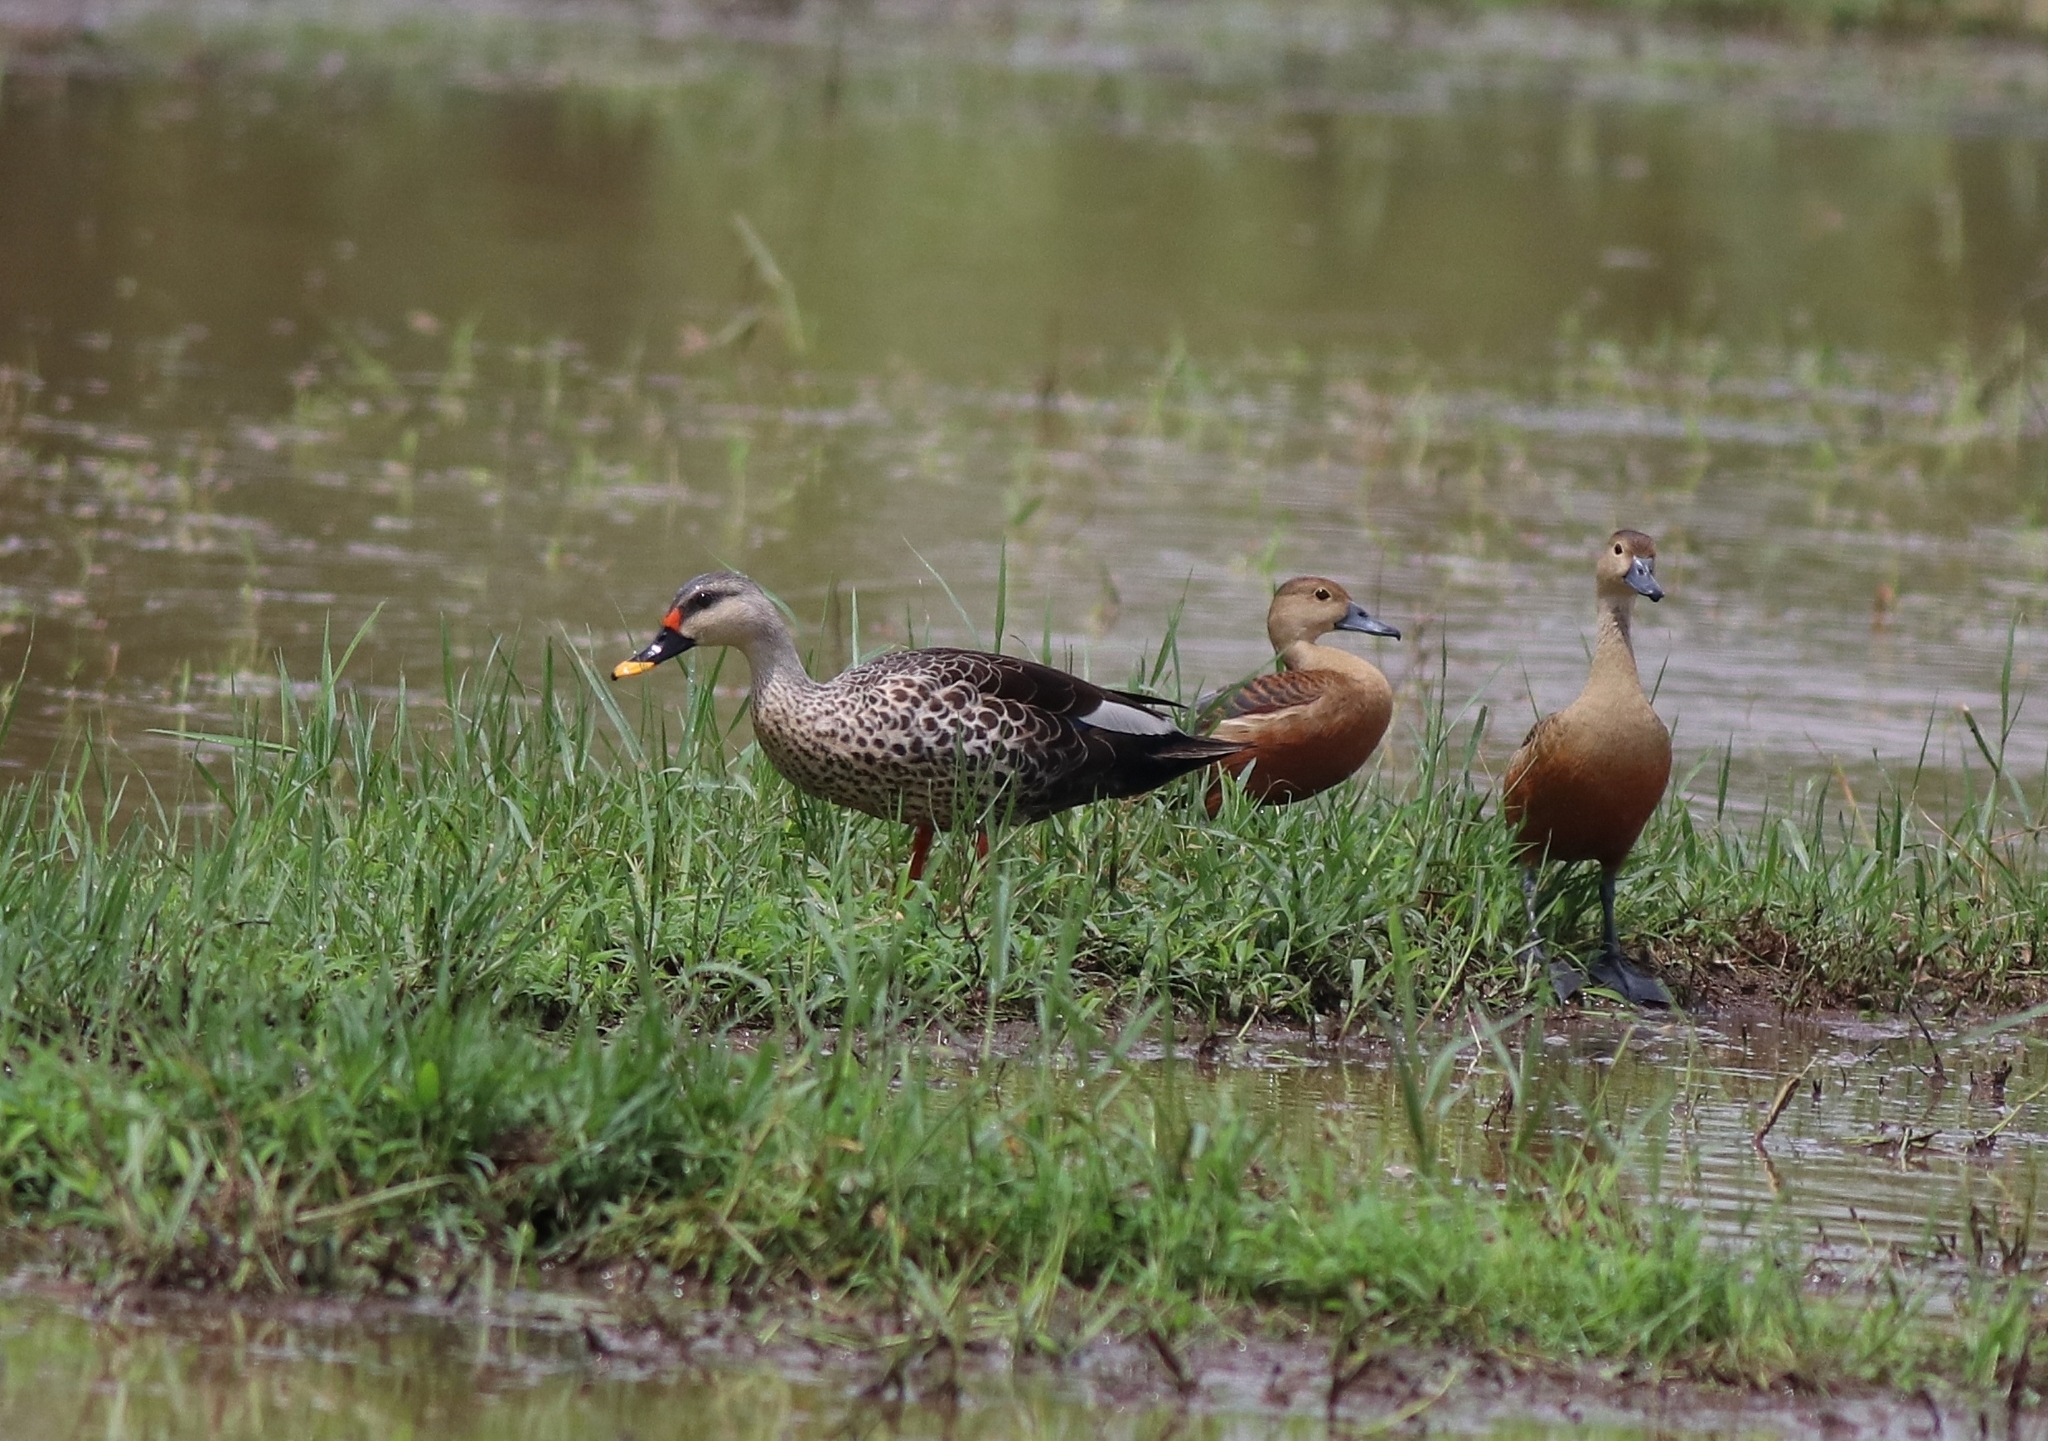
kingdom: Animalia
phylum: Chordata
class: Aves
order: Anseriformes
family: Anatidae
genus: Anas
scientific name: Anas poecilorhyncha
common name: Indian spot-billed duck
